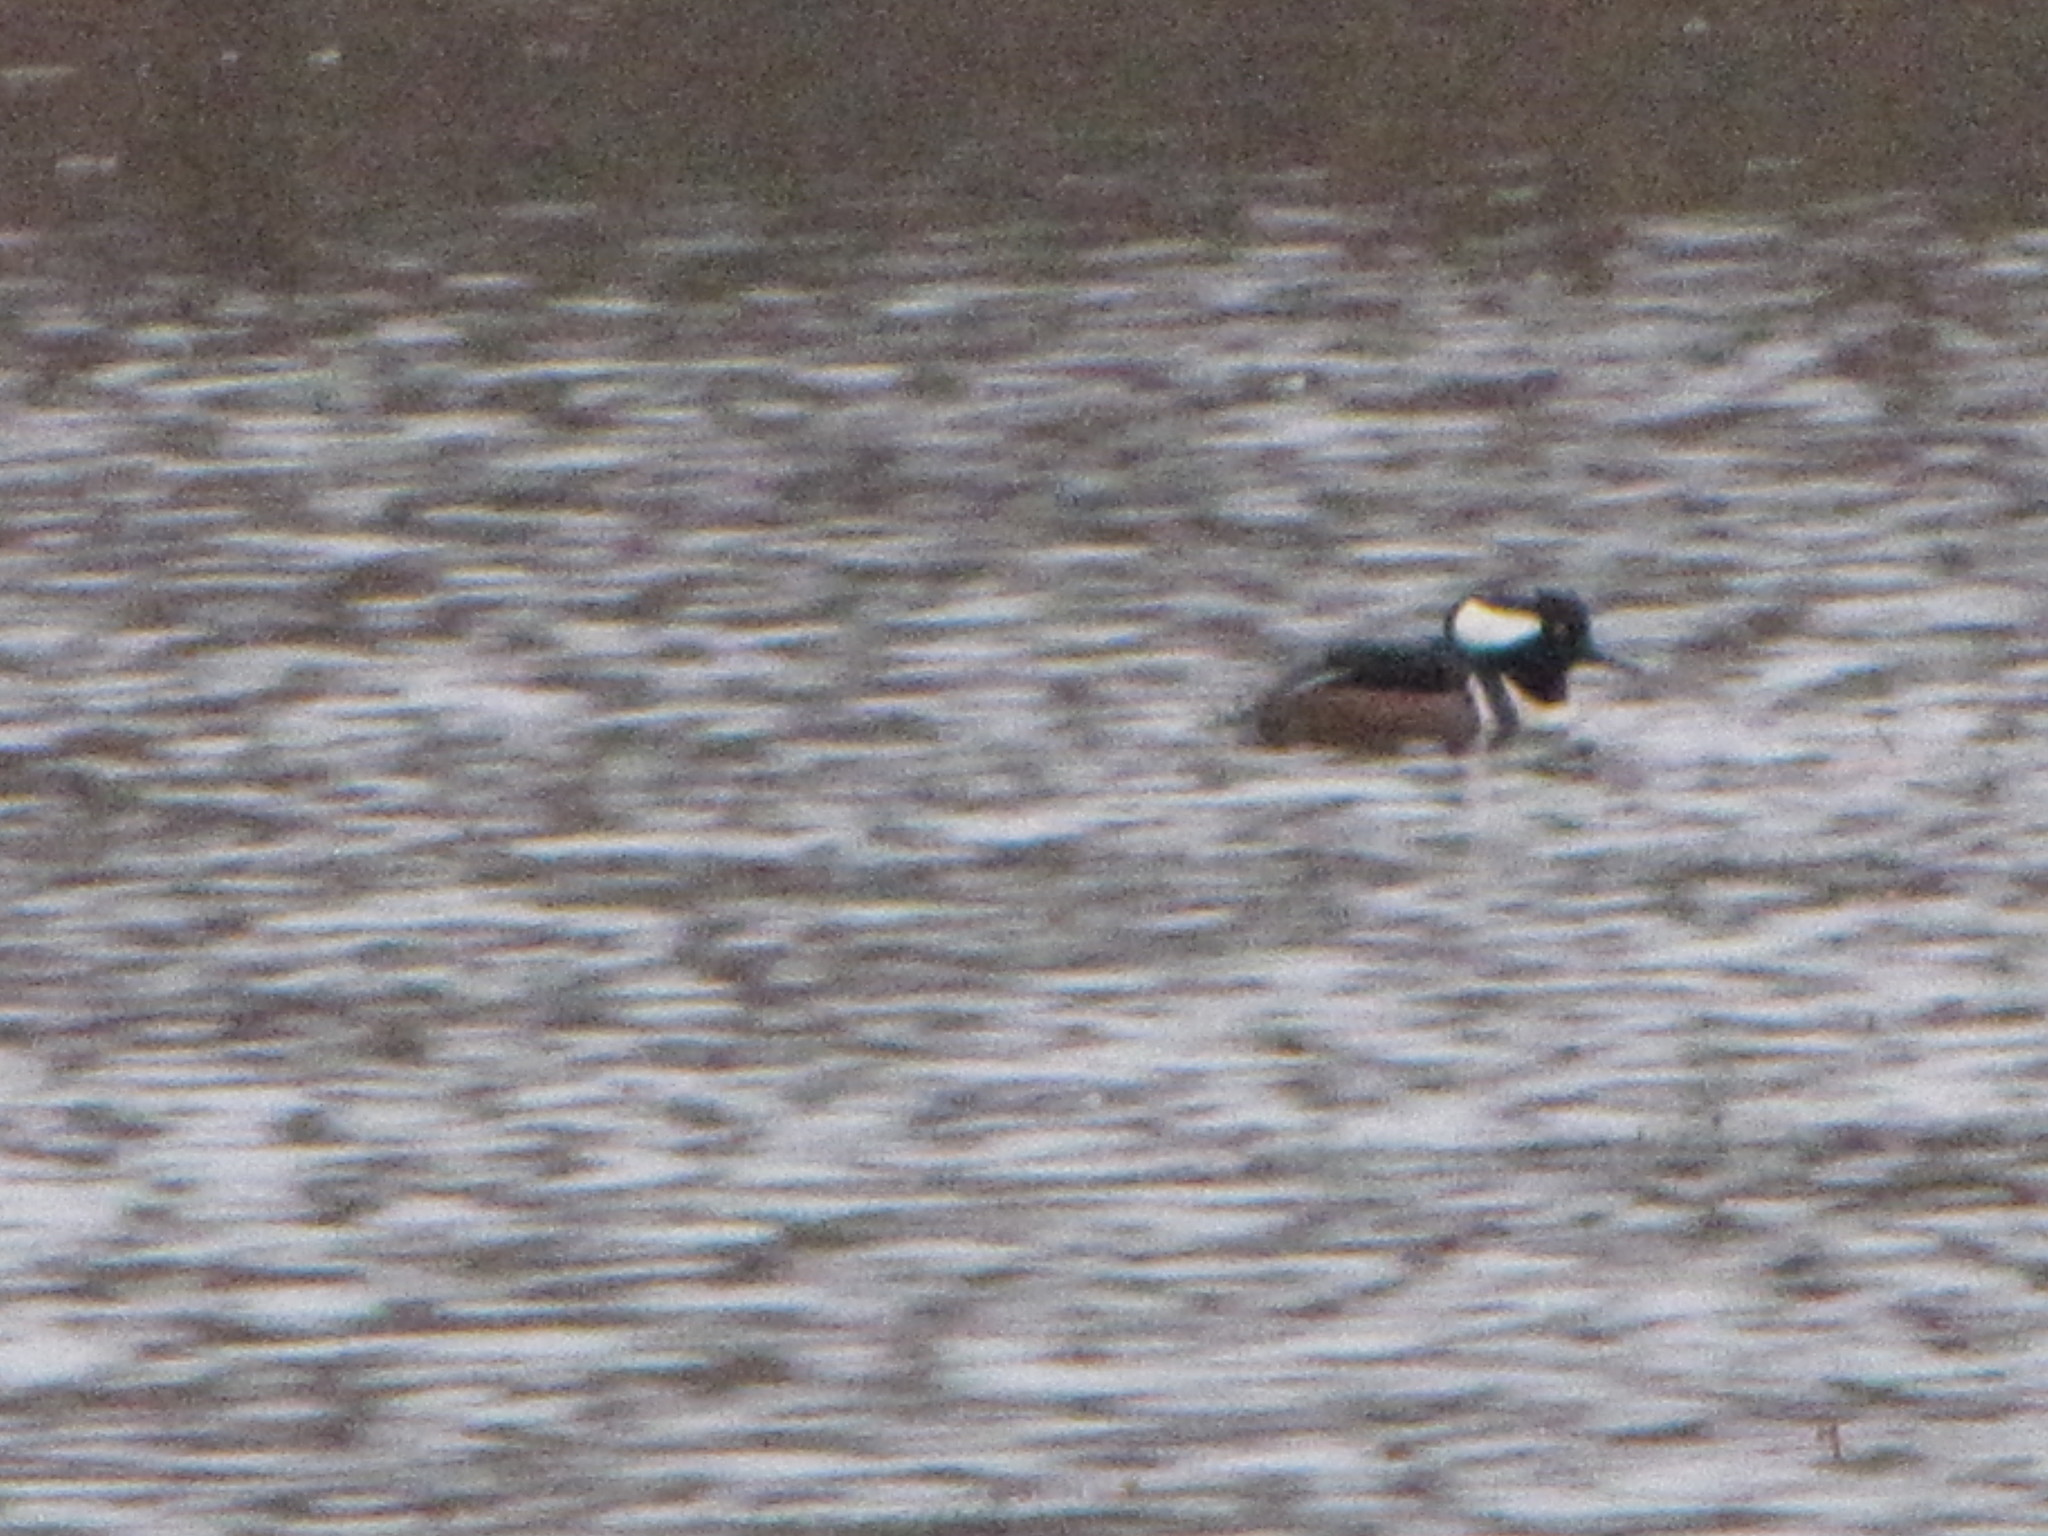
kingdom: Animalia
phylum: Chordata
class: Aves
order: Anseriformes
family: Anatidae
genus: Lophodytes
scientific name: Lophodytes cucullatus
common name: Hooded merganser
